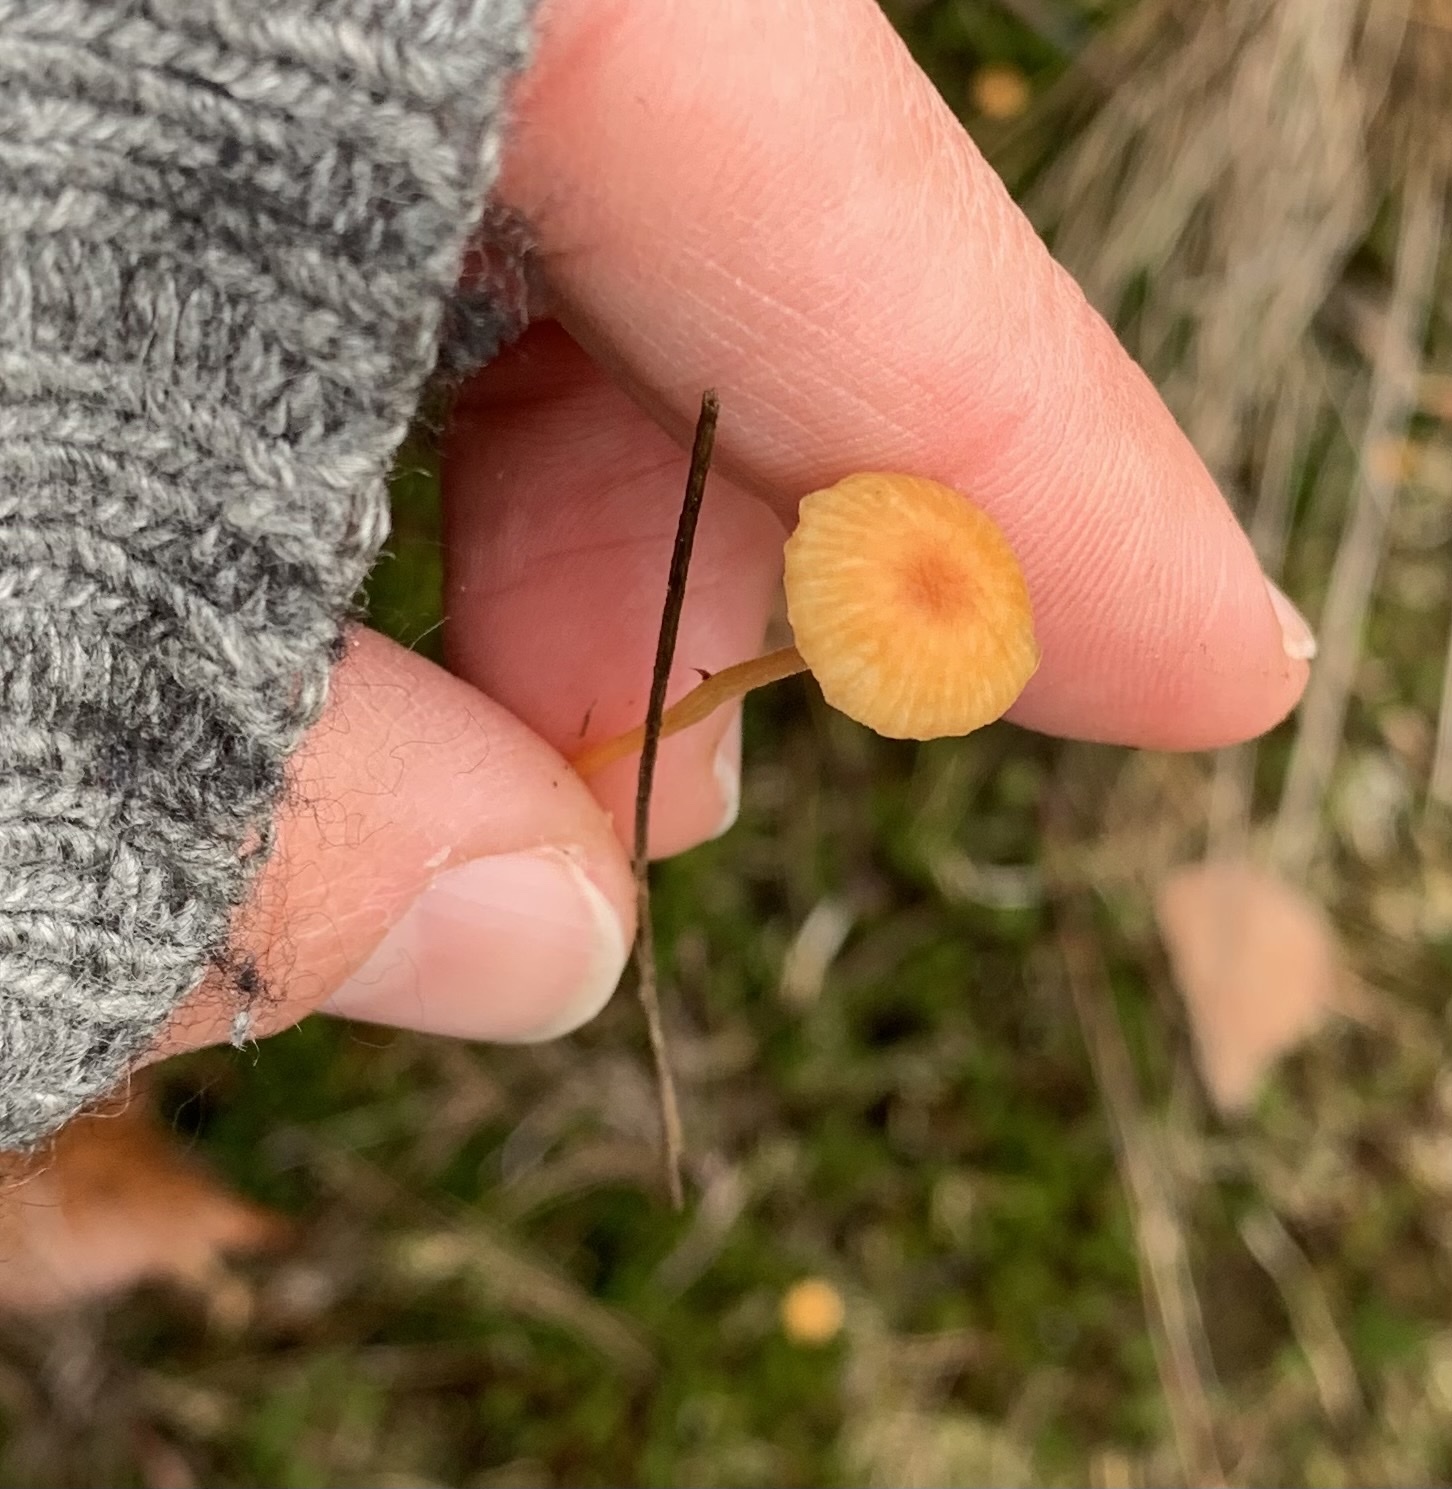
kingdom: Fungi
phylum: Basidiomycota
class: Agaricomycetes
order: Hymenochaetales
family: Rickenellaceae
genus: Rickenella
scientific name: Rickenella fibula
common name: Orange mosscap
